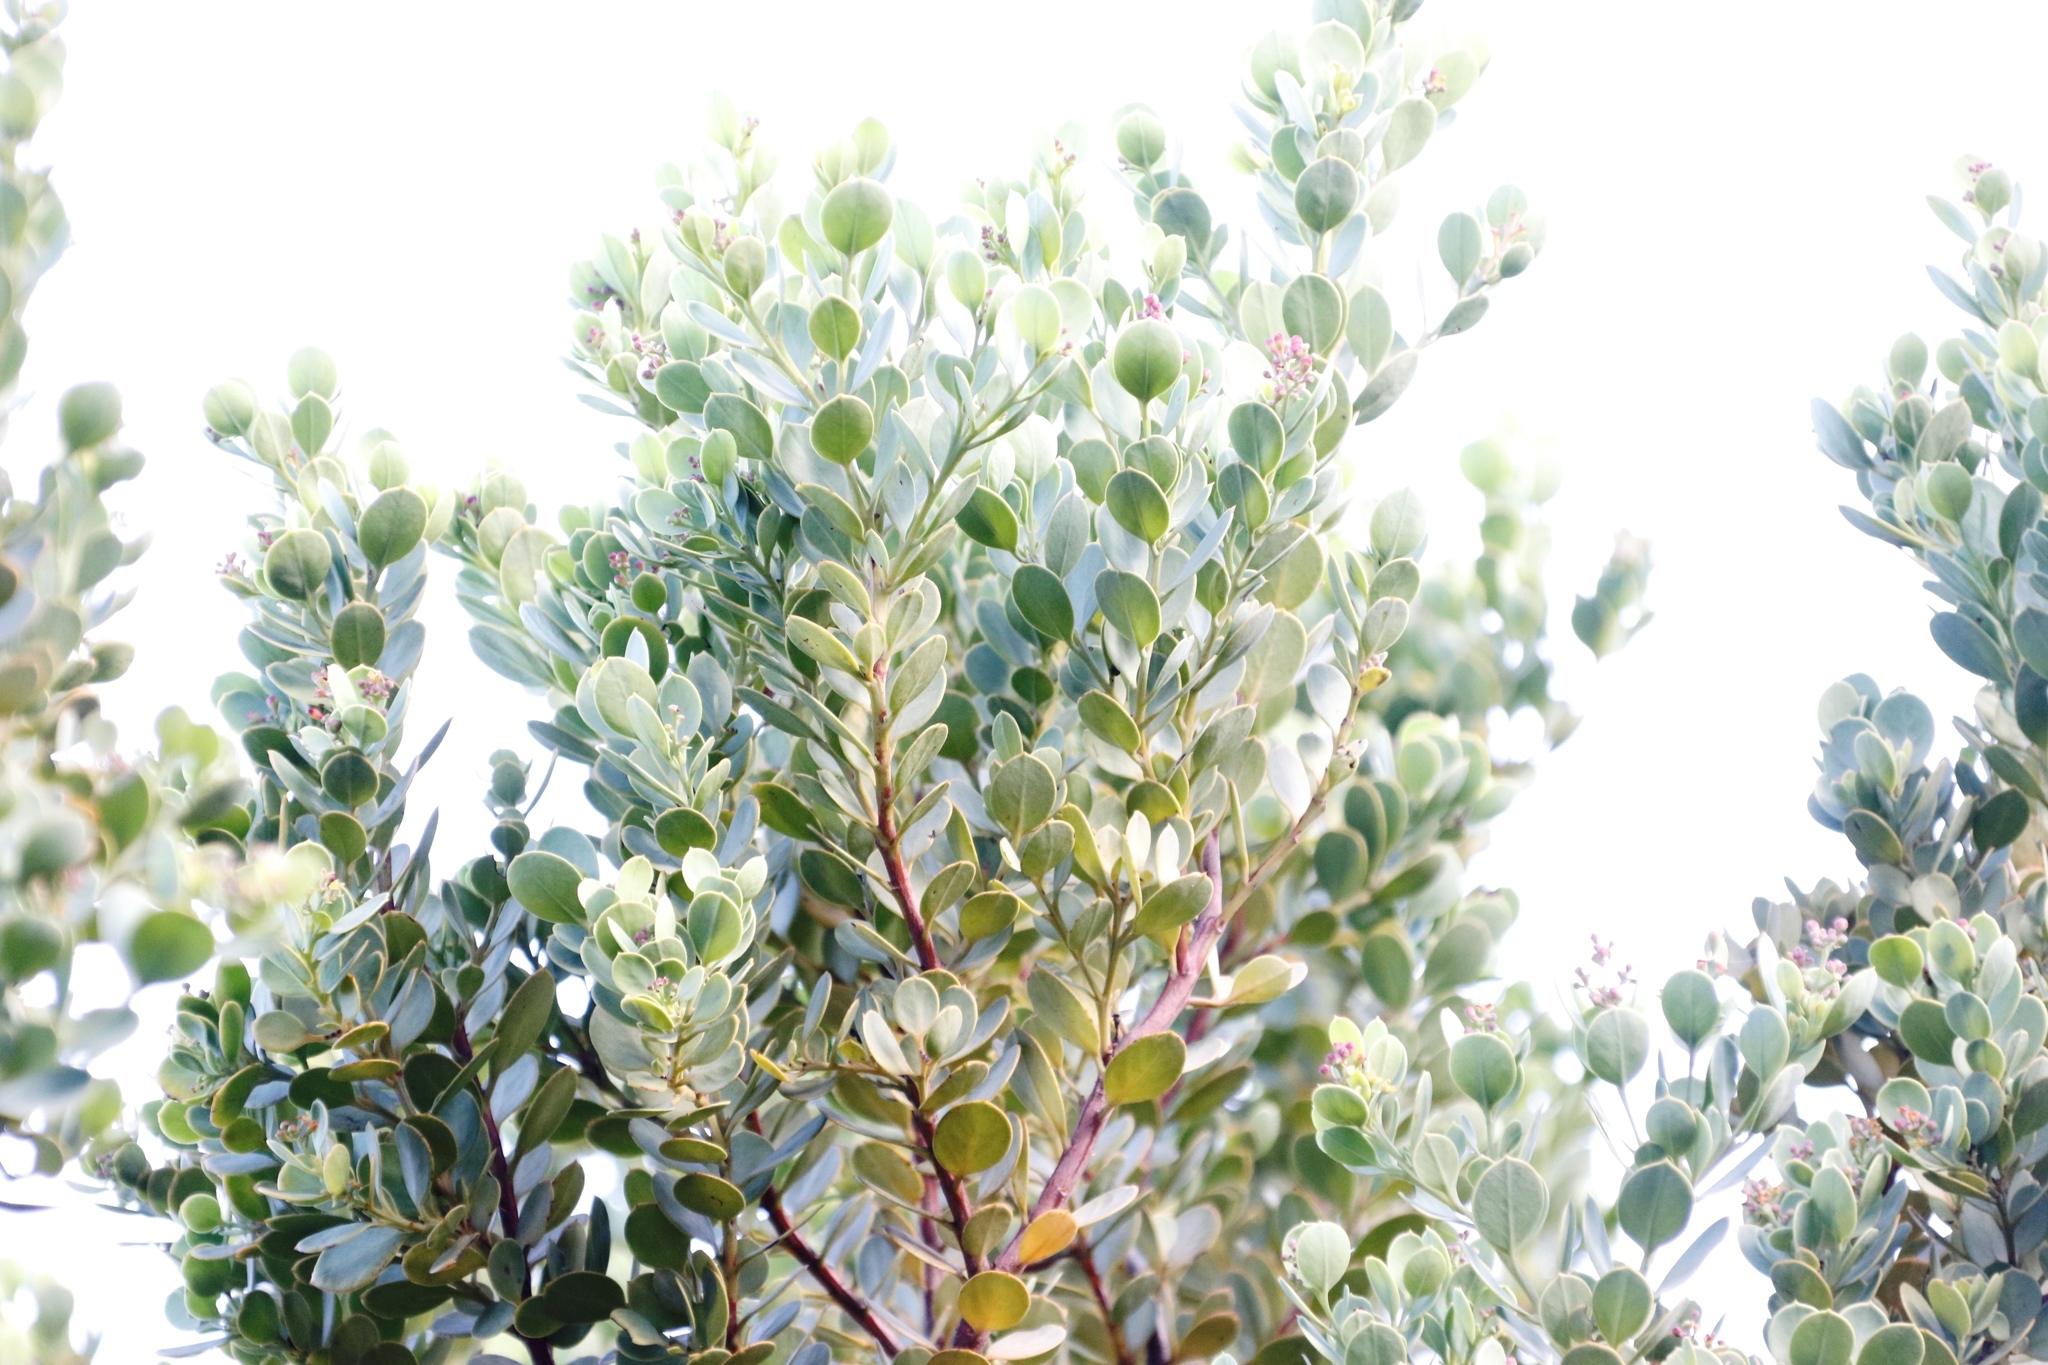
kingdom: Plantae
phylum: Tracheophyta
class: Magnoliopsida
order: Santalales
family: Santalaceae
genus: Osyris
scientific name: Osyris compressa
